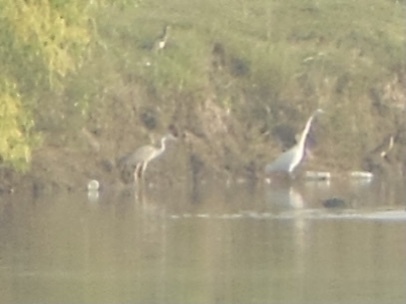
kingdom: Animalia
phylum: Chordata
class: Aves
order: Pelecaniformes
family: Ardeidae
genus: Ardea
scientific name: Ardea cinerea
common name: Grey heron
